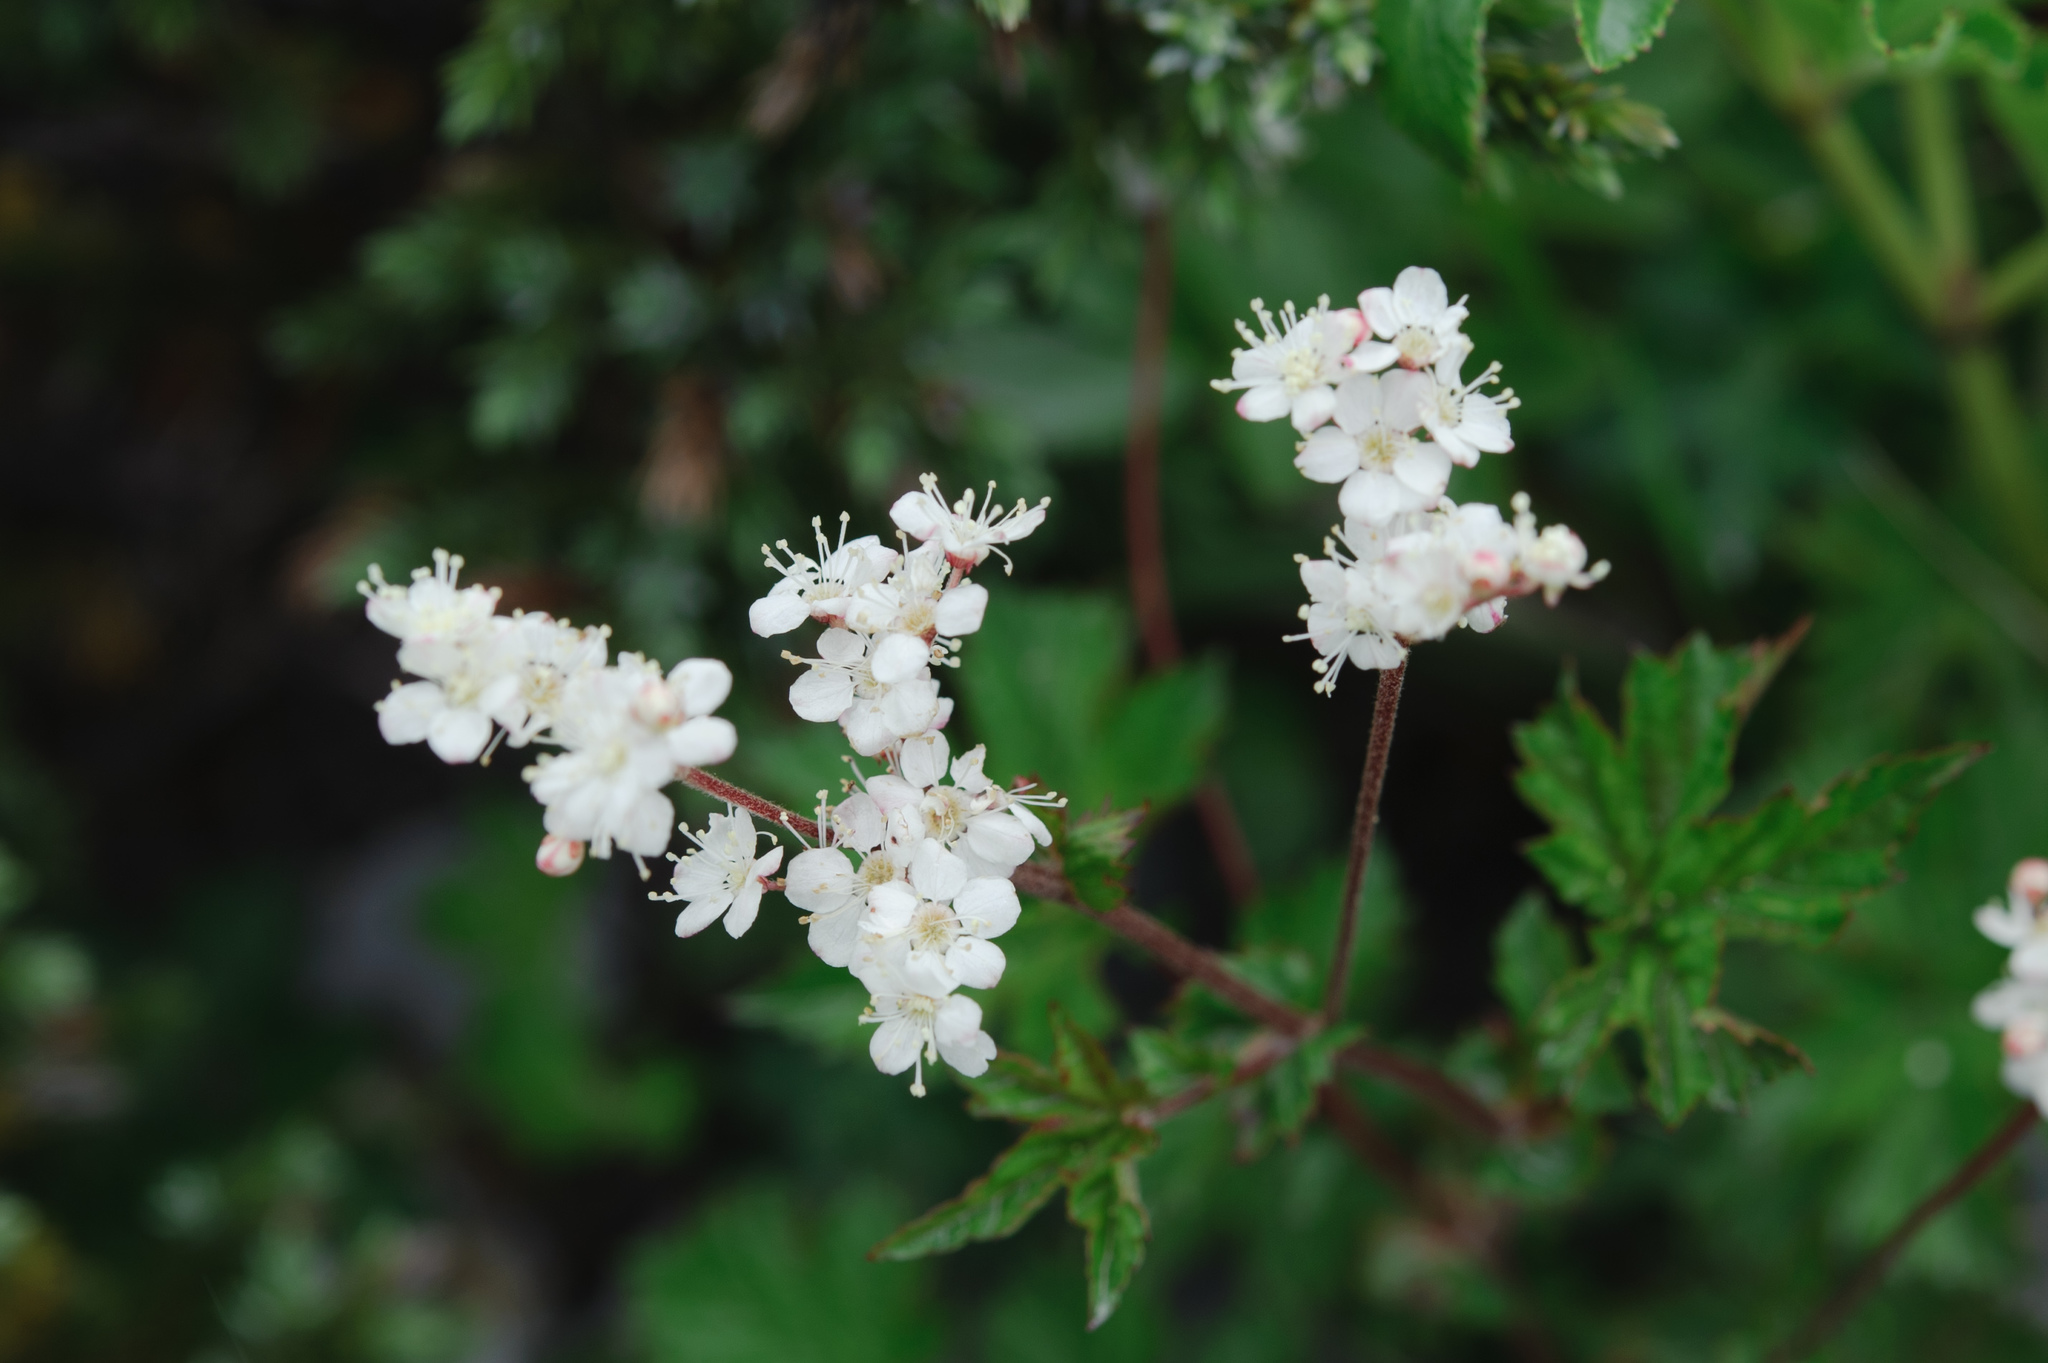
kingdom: Plantae
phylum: Tracheophyta
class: Magnoliopsida
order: Rosales
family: Rosaceae
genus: Filipendula
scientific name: Filipendula kiraishiensis
